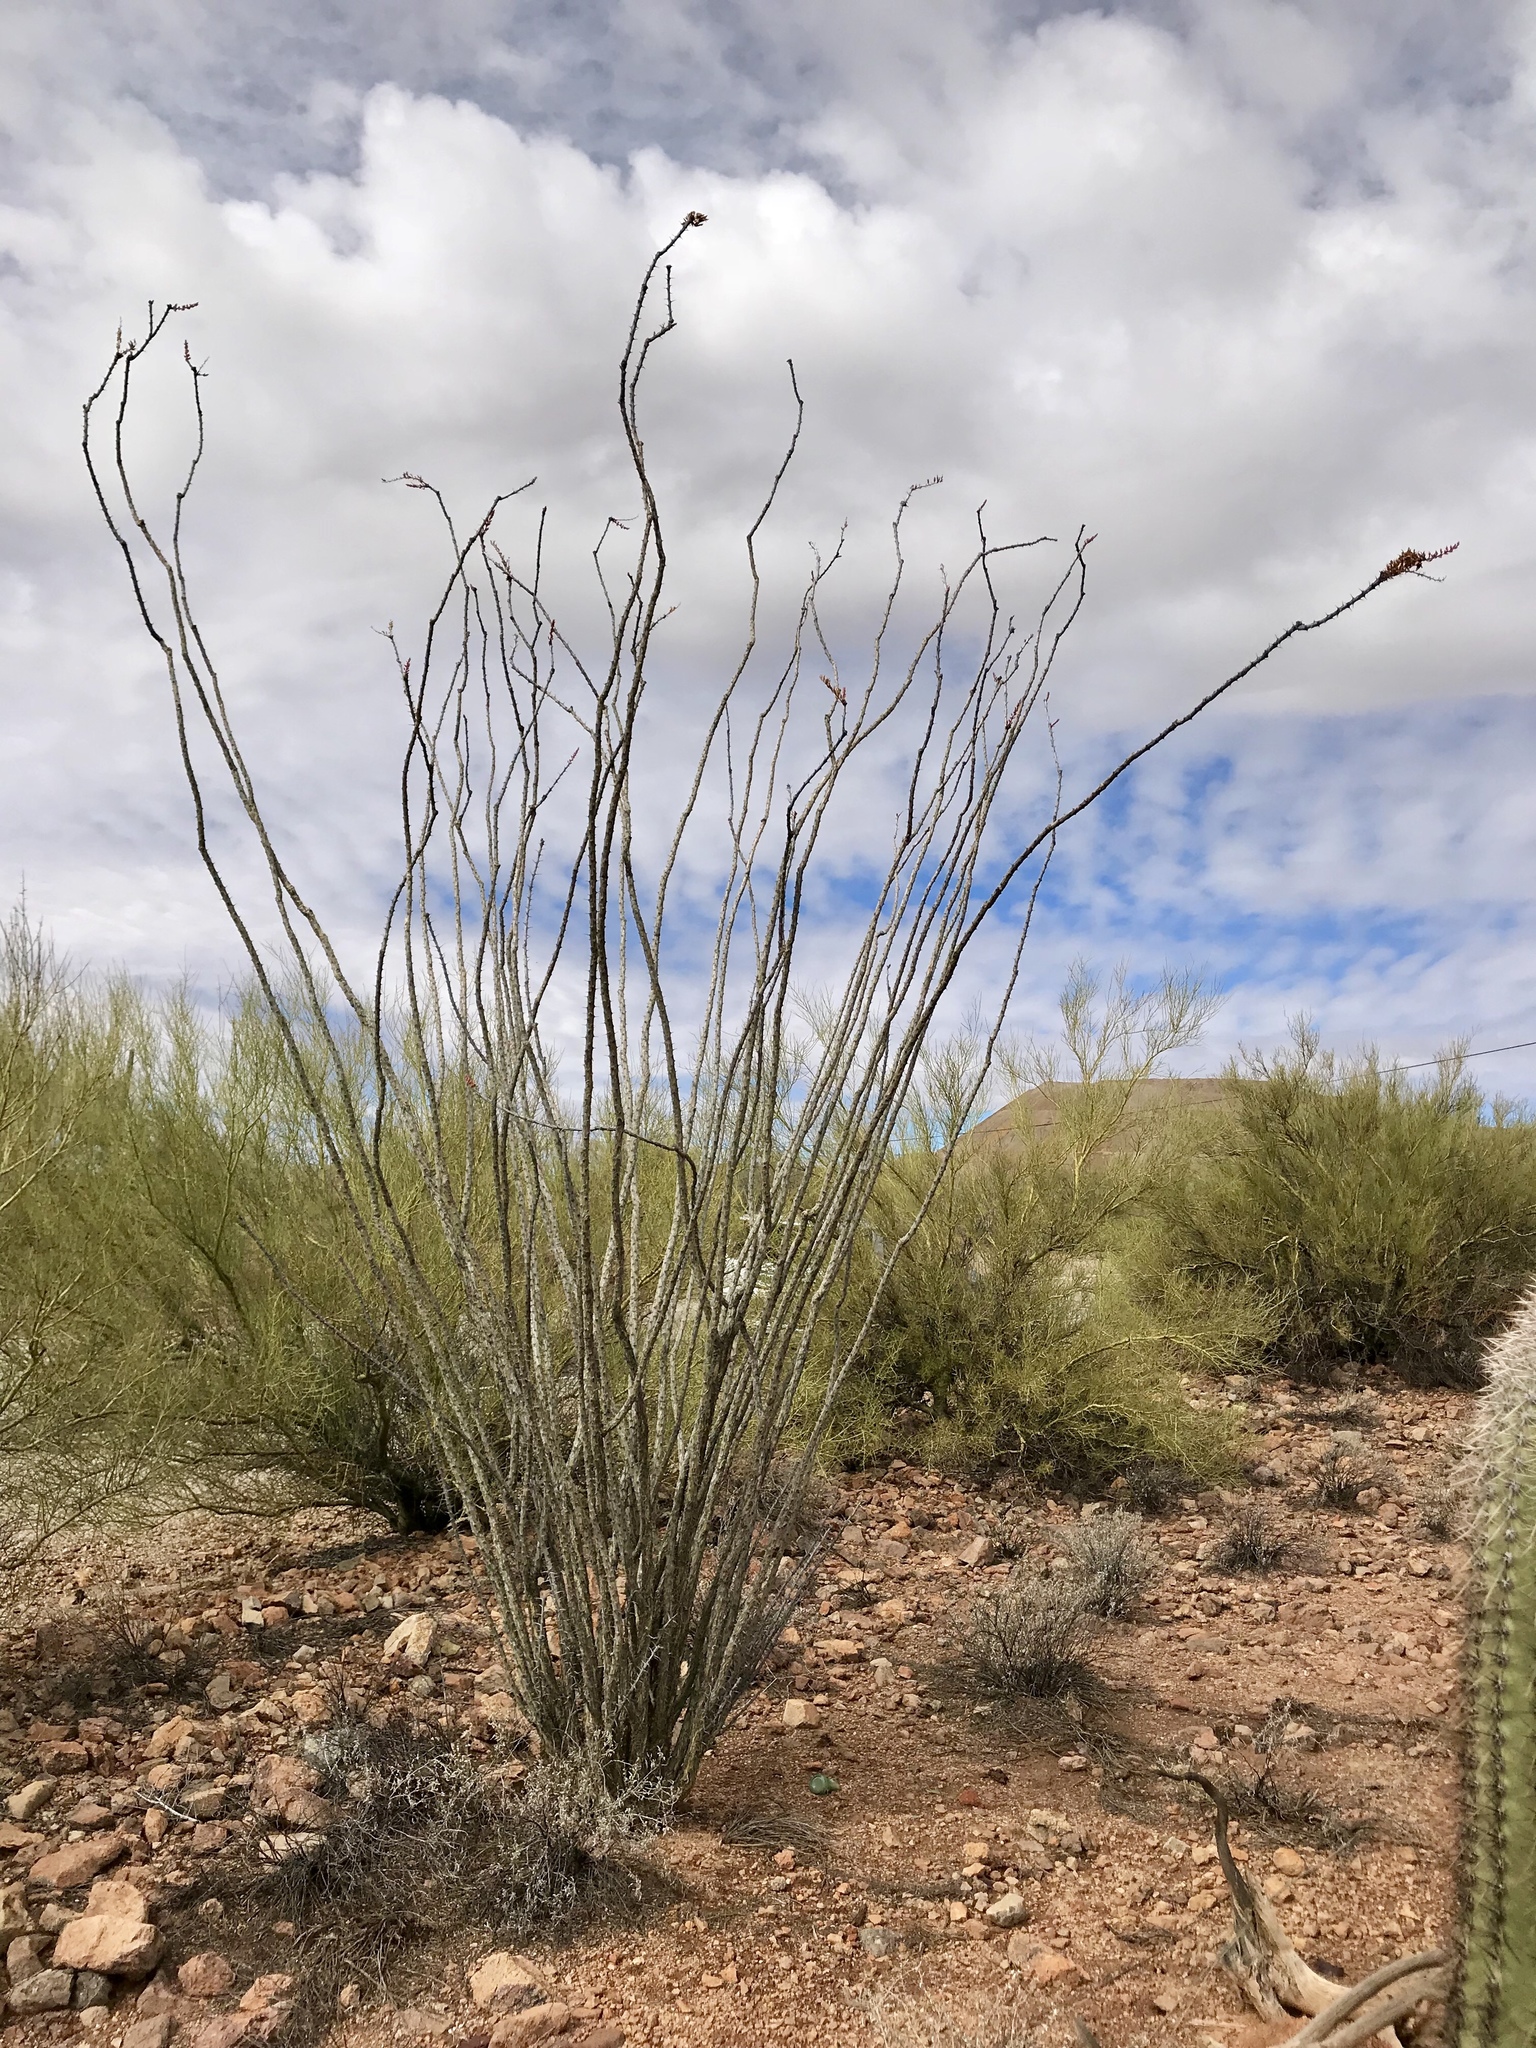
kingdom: Plantae
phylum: Tracheophyta
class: Magnoliopsida
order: Ericales
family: Fouquieriaceae
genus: Fouquieria
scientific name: Fouquieria splendens
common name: Vine-cactus
